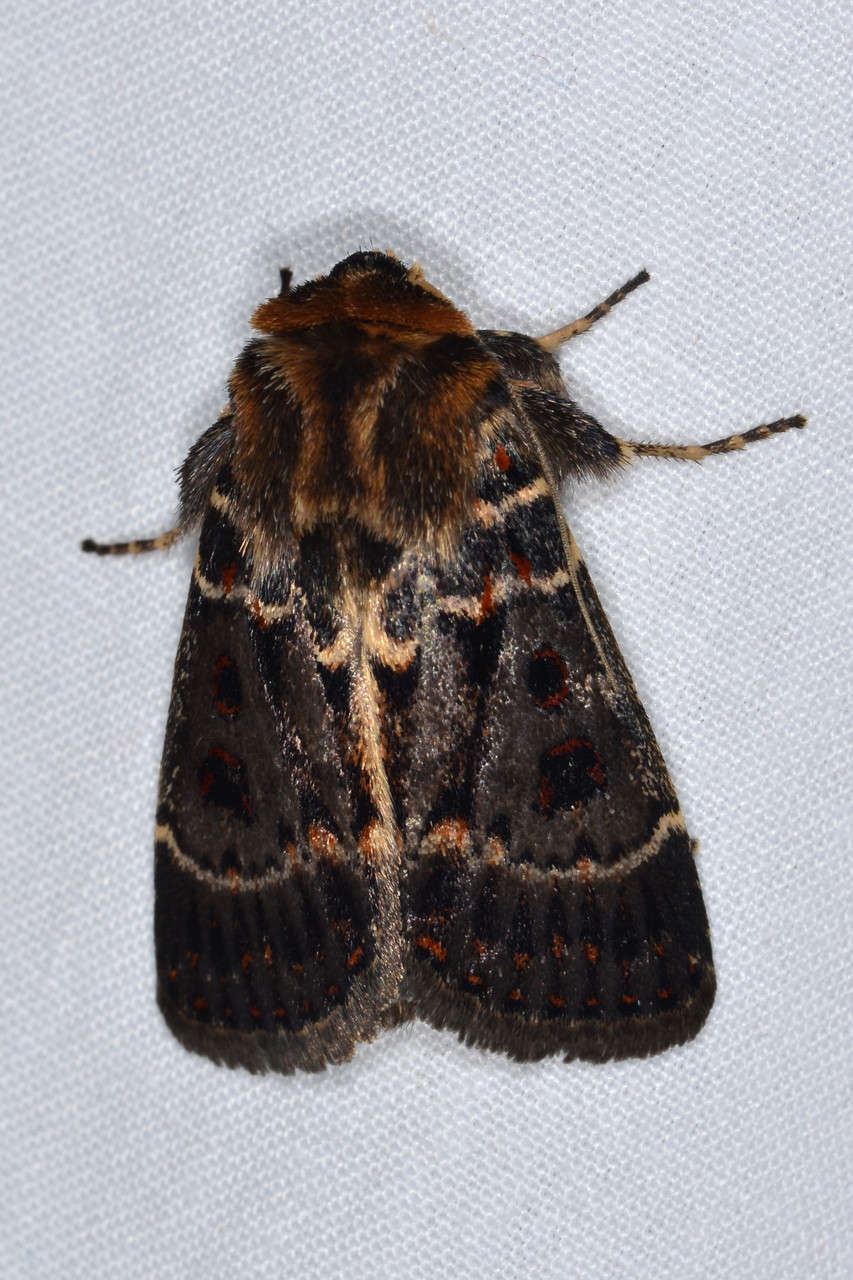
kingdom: Animalia
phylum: Arthropoda
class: Insecta
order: Lepidoptera
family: Noctuidae
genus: Proteuxoa
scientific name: Proteuxoa sanguinipuncta
